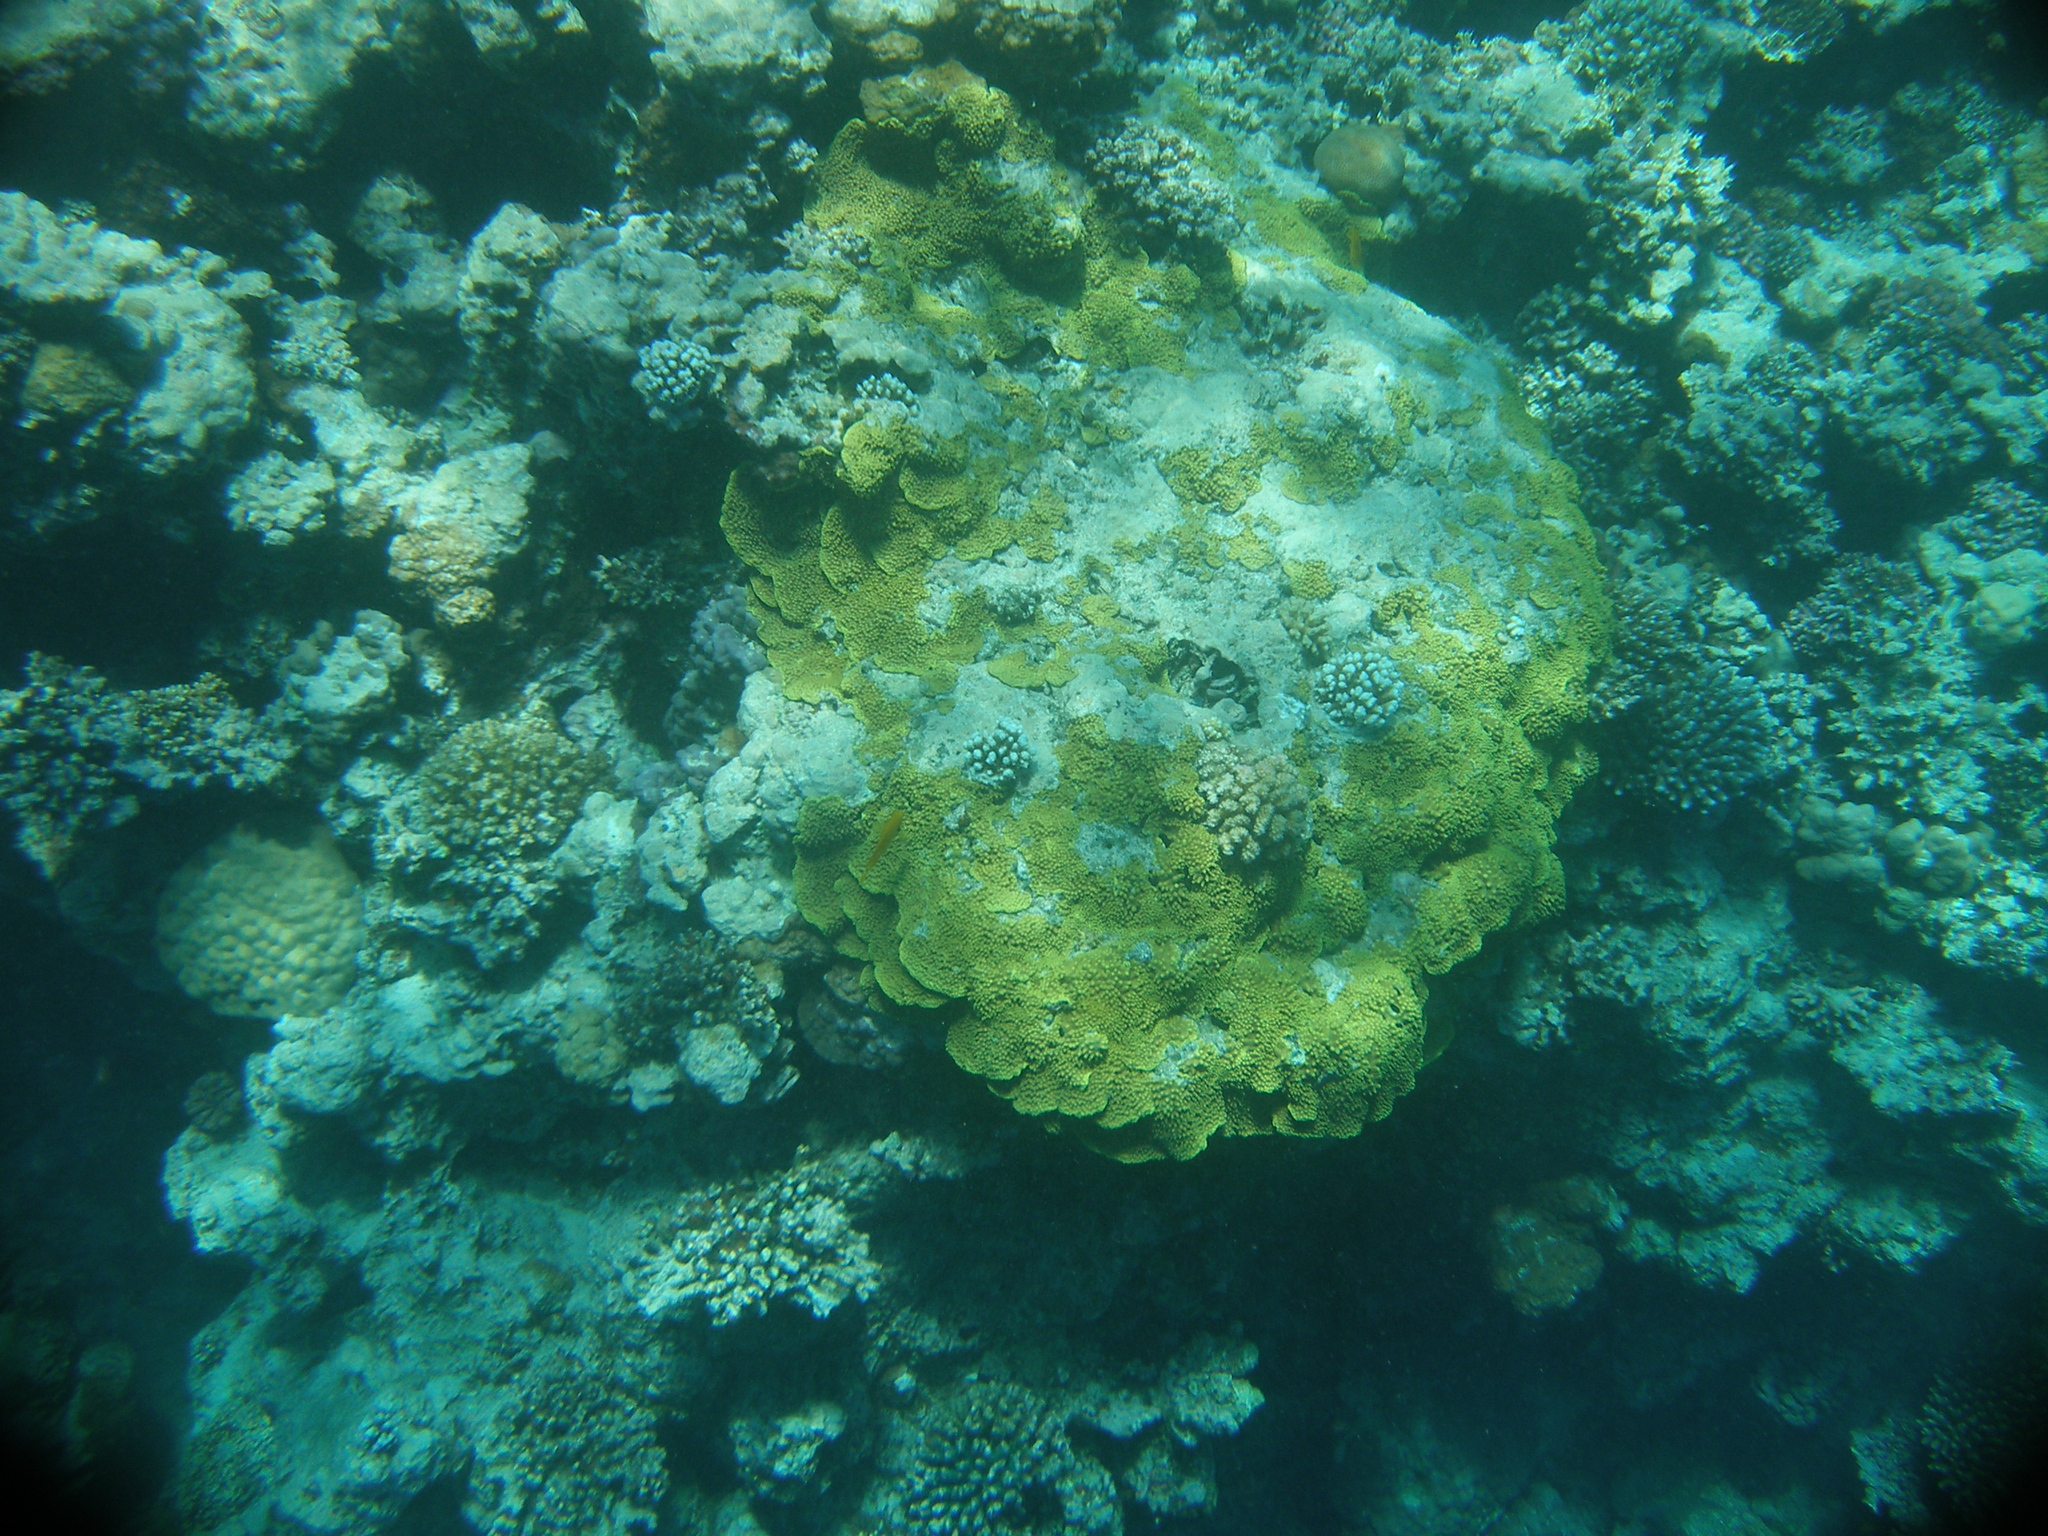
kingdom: Animalia
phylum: Cnidaria
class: Anthozoa
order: Scleractinia
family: Dendrophylliidae
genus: Turbinaria
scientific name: Turbinaria reniformis
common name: Disc coral
